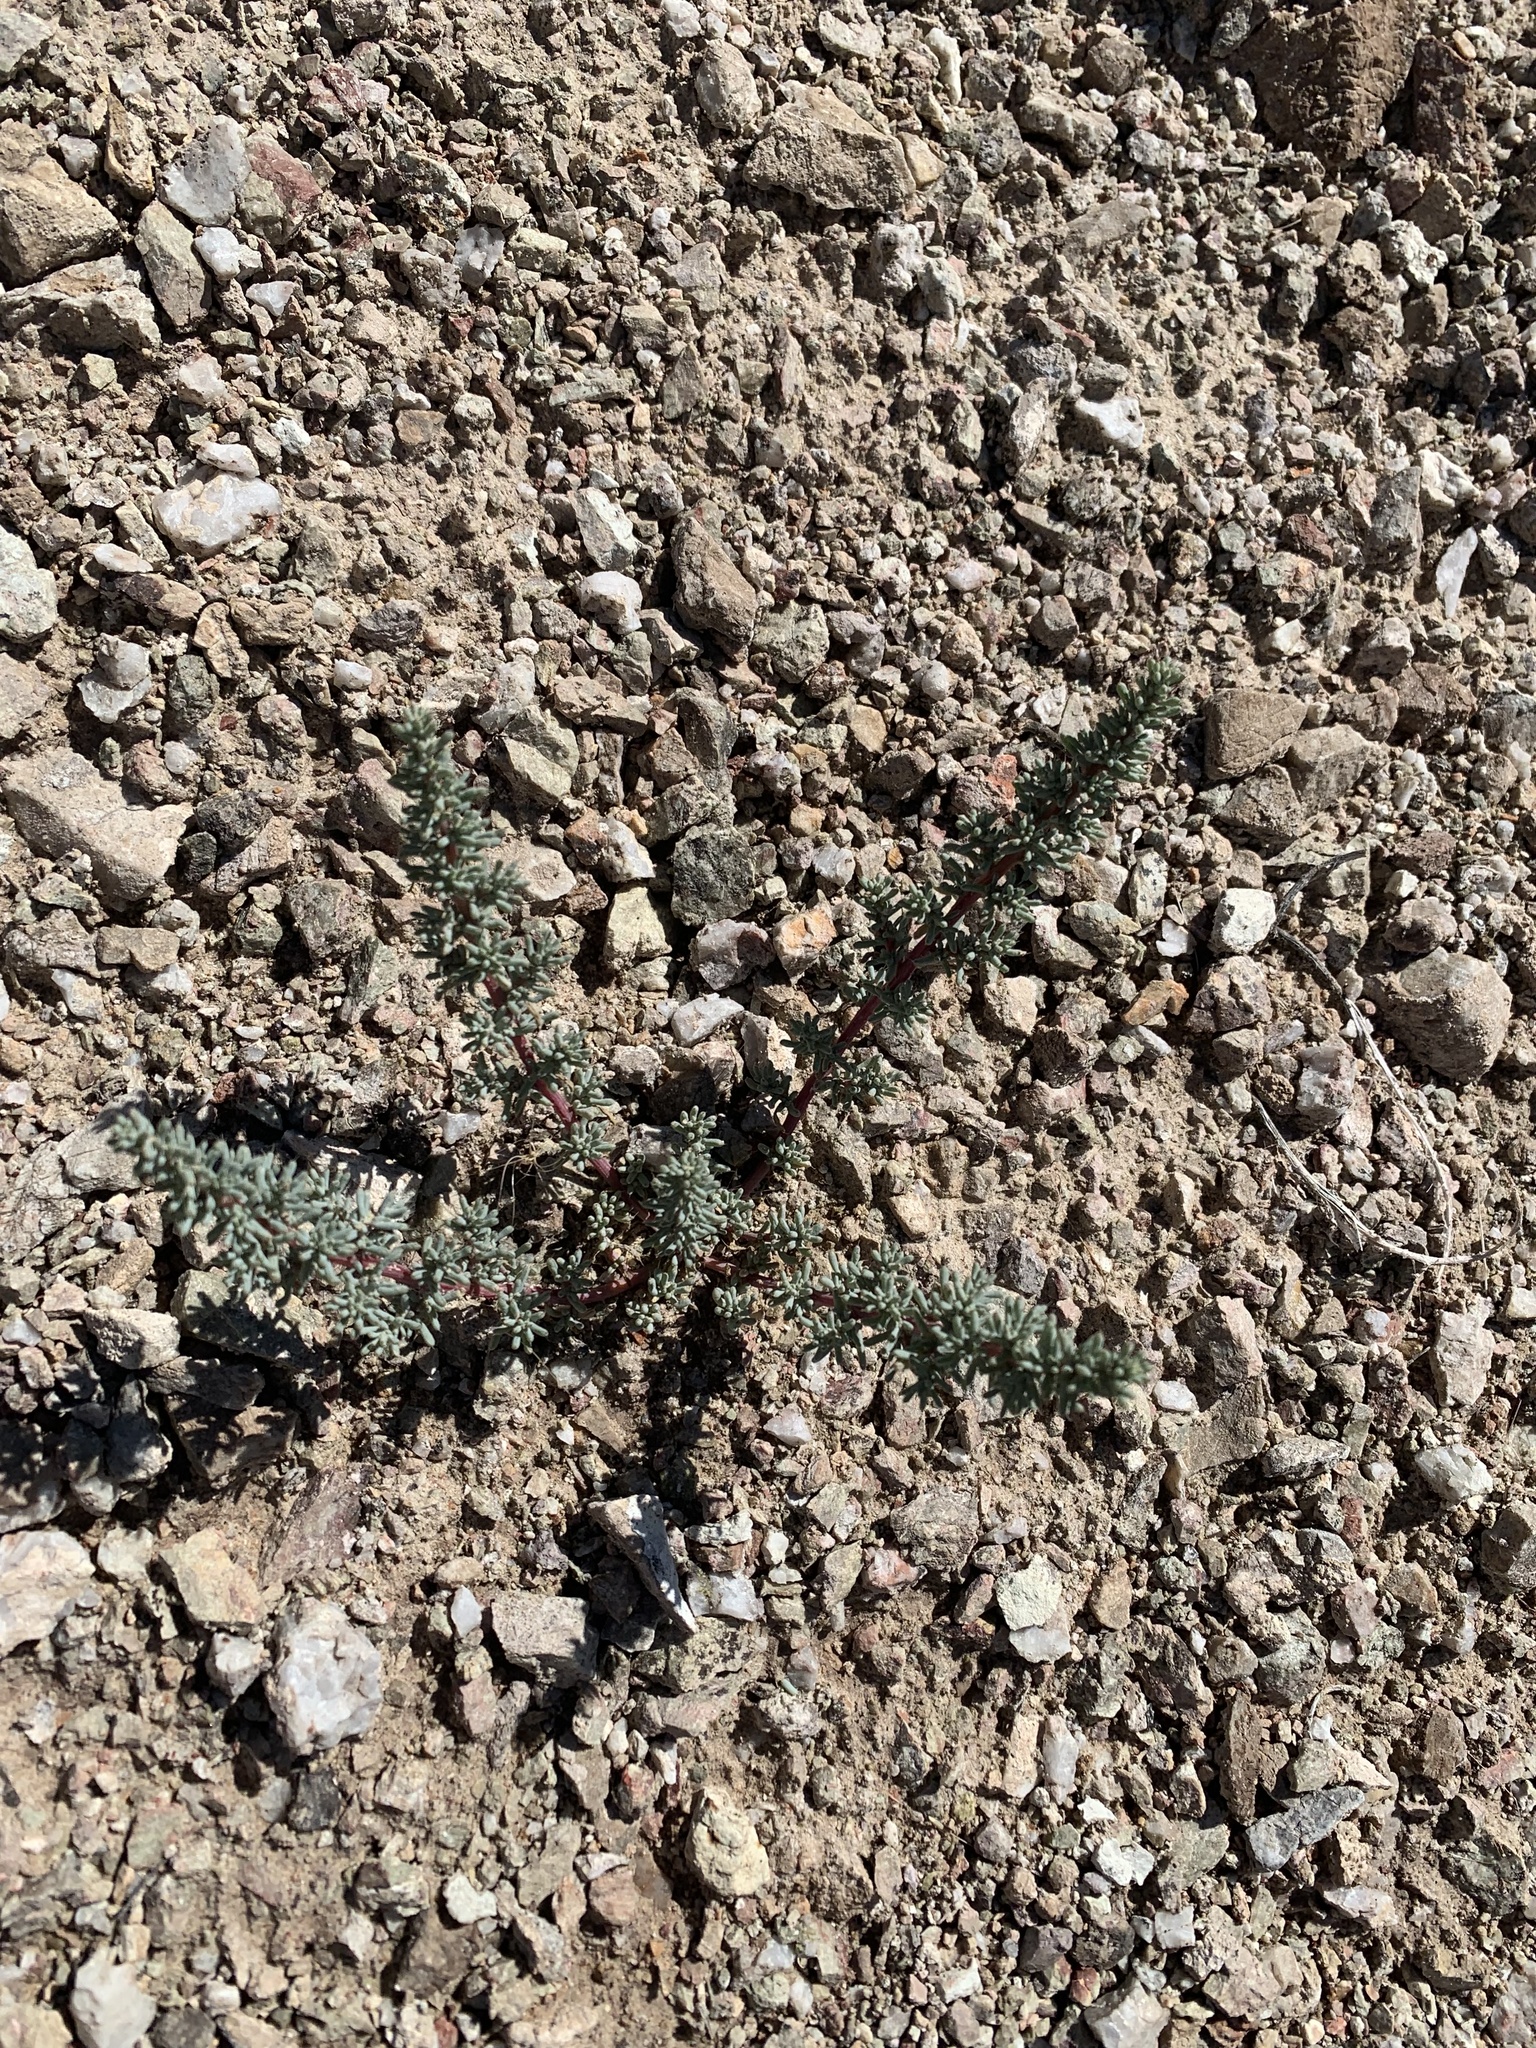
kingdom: Plantae
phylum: Tracheophyta
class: Magnoliopsida
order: Caryophyllales
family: Amaranthaceae
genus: Halogeton
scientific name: Halogeton glomeratus
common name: Saltlover
